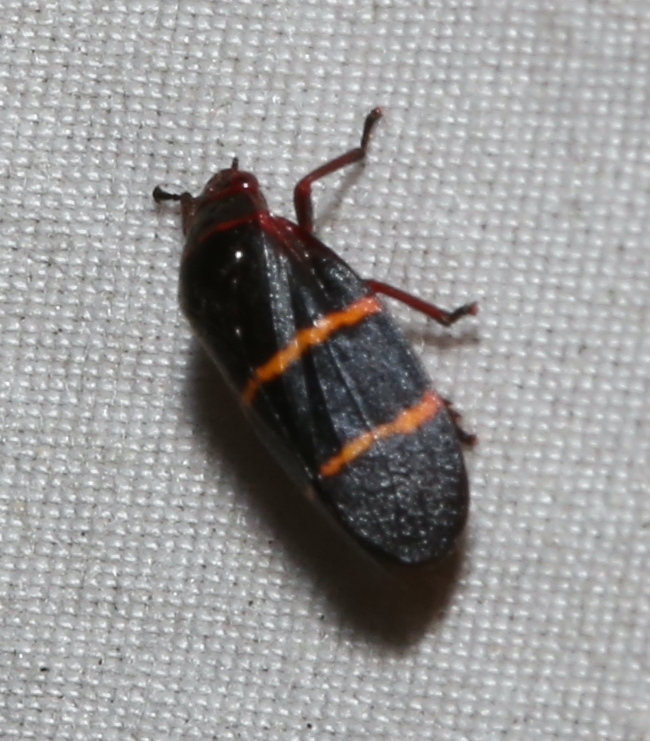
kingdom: Animalia
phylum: Arthropoda
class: Insecta
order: Hemiptera
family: Cercopidae
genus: Prosapia
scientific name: Prosapia bicincta
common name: Twolined spittlebug
